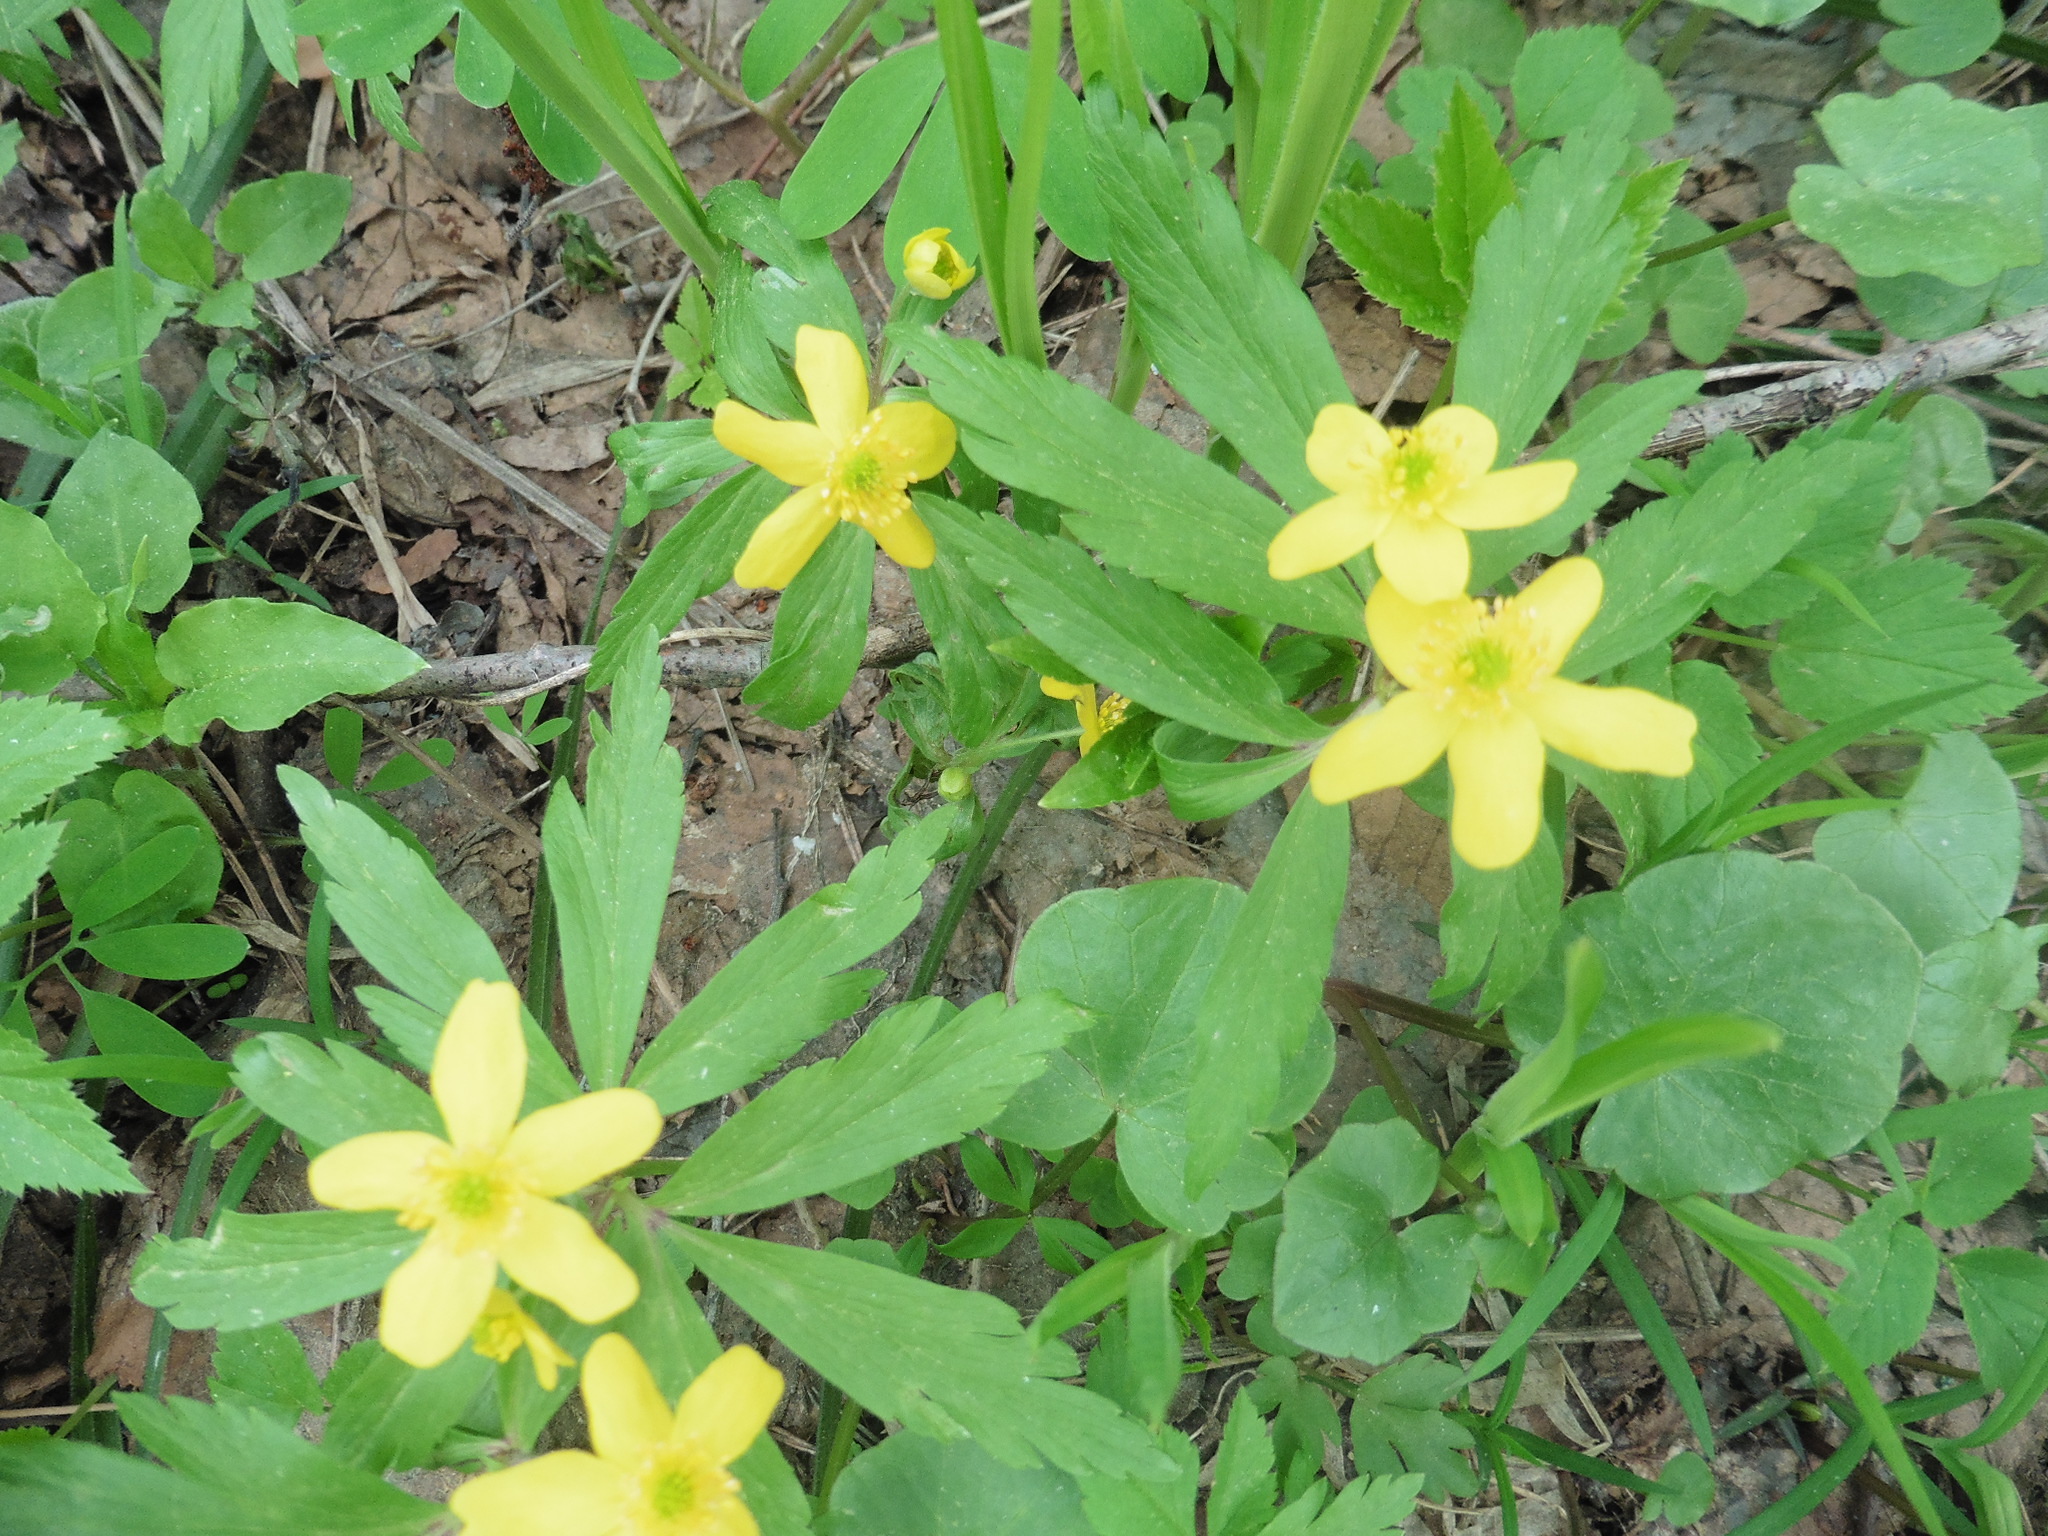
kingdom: Plantae
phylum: Tracheophyta
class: Magnoliopsida
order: Ranunculales
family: Ranunculaceae
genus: Anemone
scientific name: Anemone ranunculoides
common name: Yellow anemone
